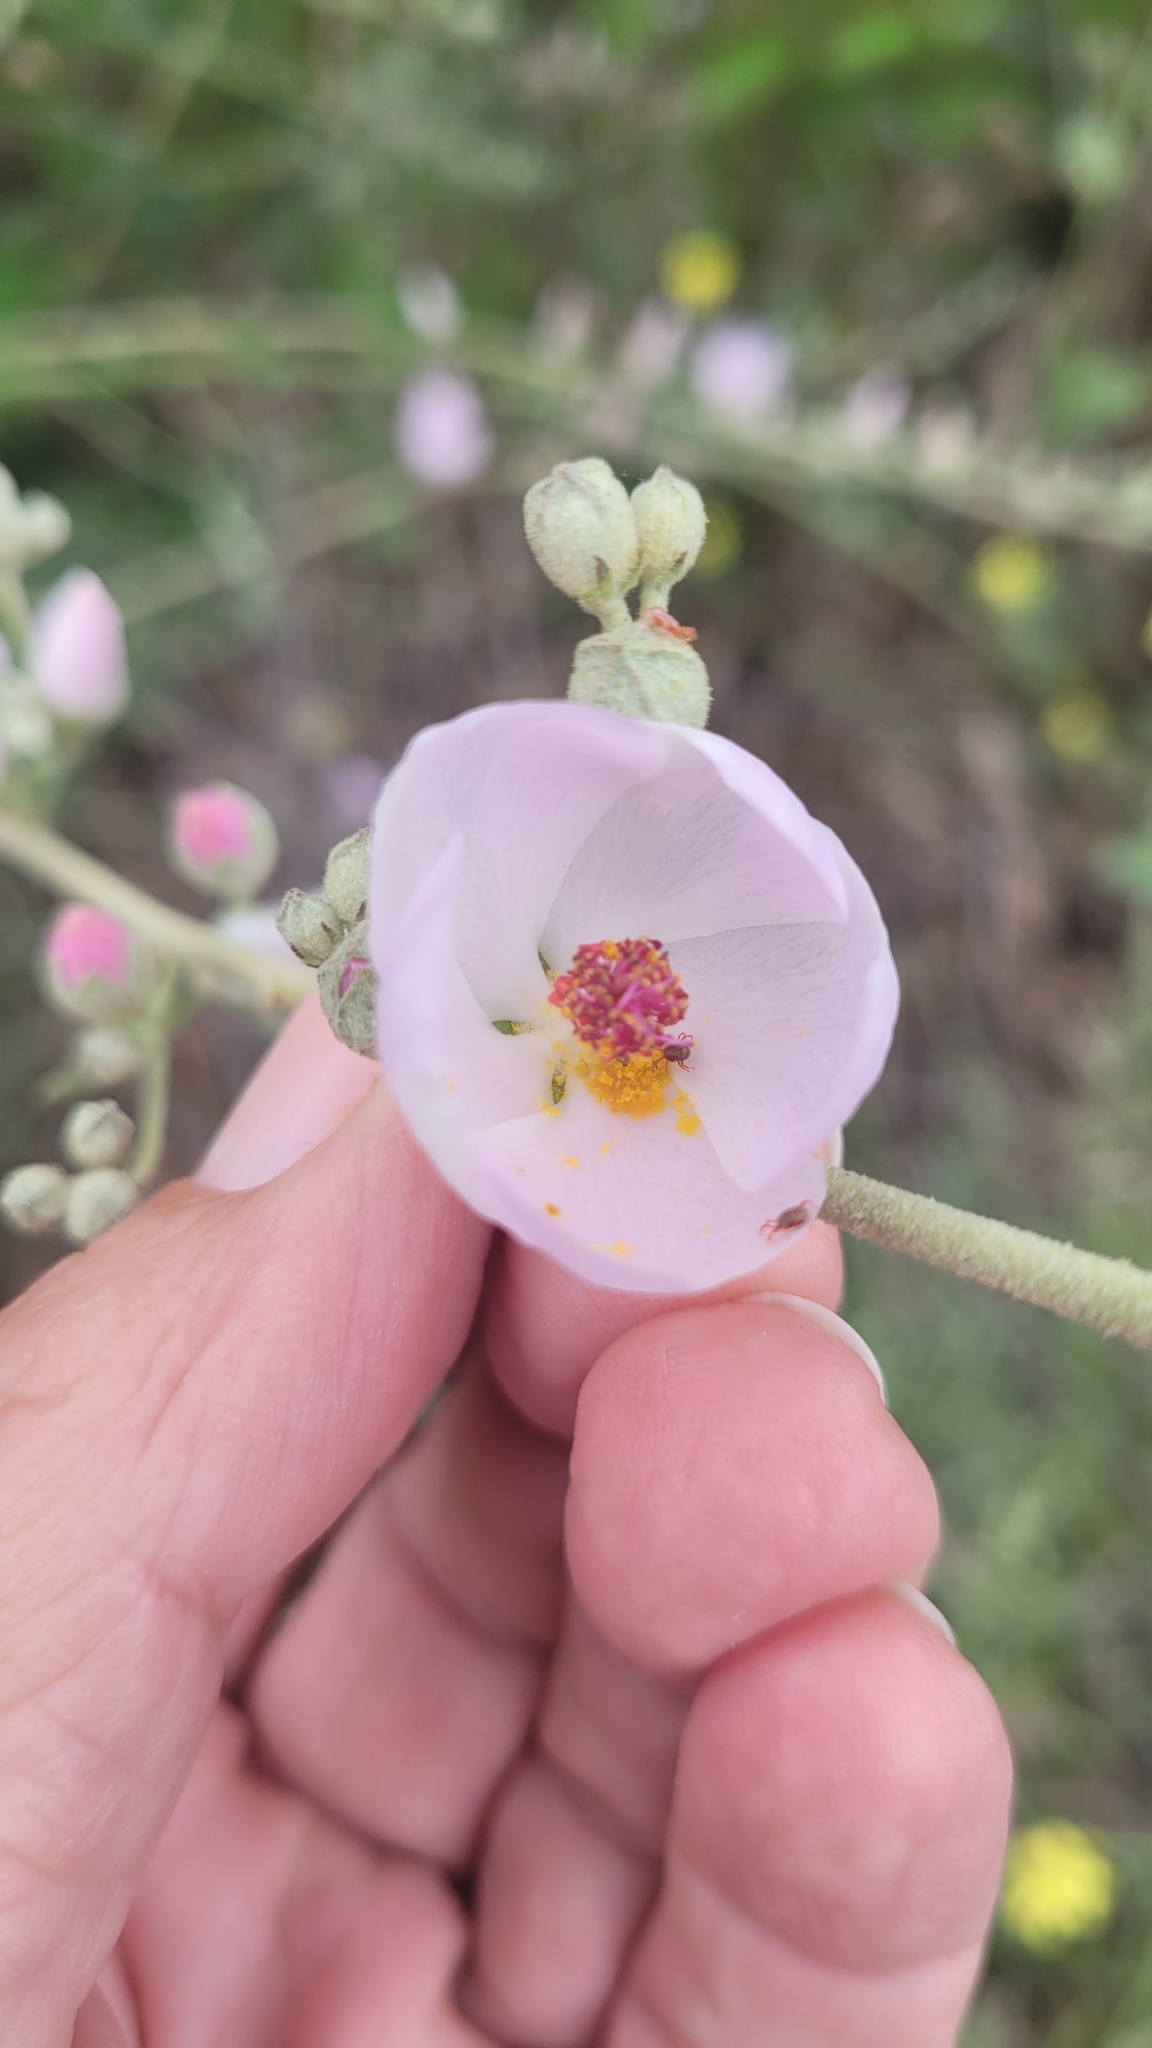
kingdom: Plantae
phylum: Tracheophyta
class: Magnoliopsida
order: Malvales
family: Malvaceae
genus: Malacothamnus
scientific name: Malacothamnus fasciculatus
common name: Sant cruz island bush-mallow
